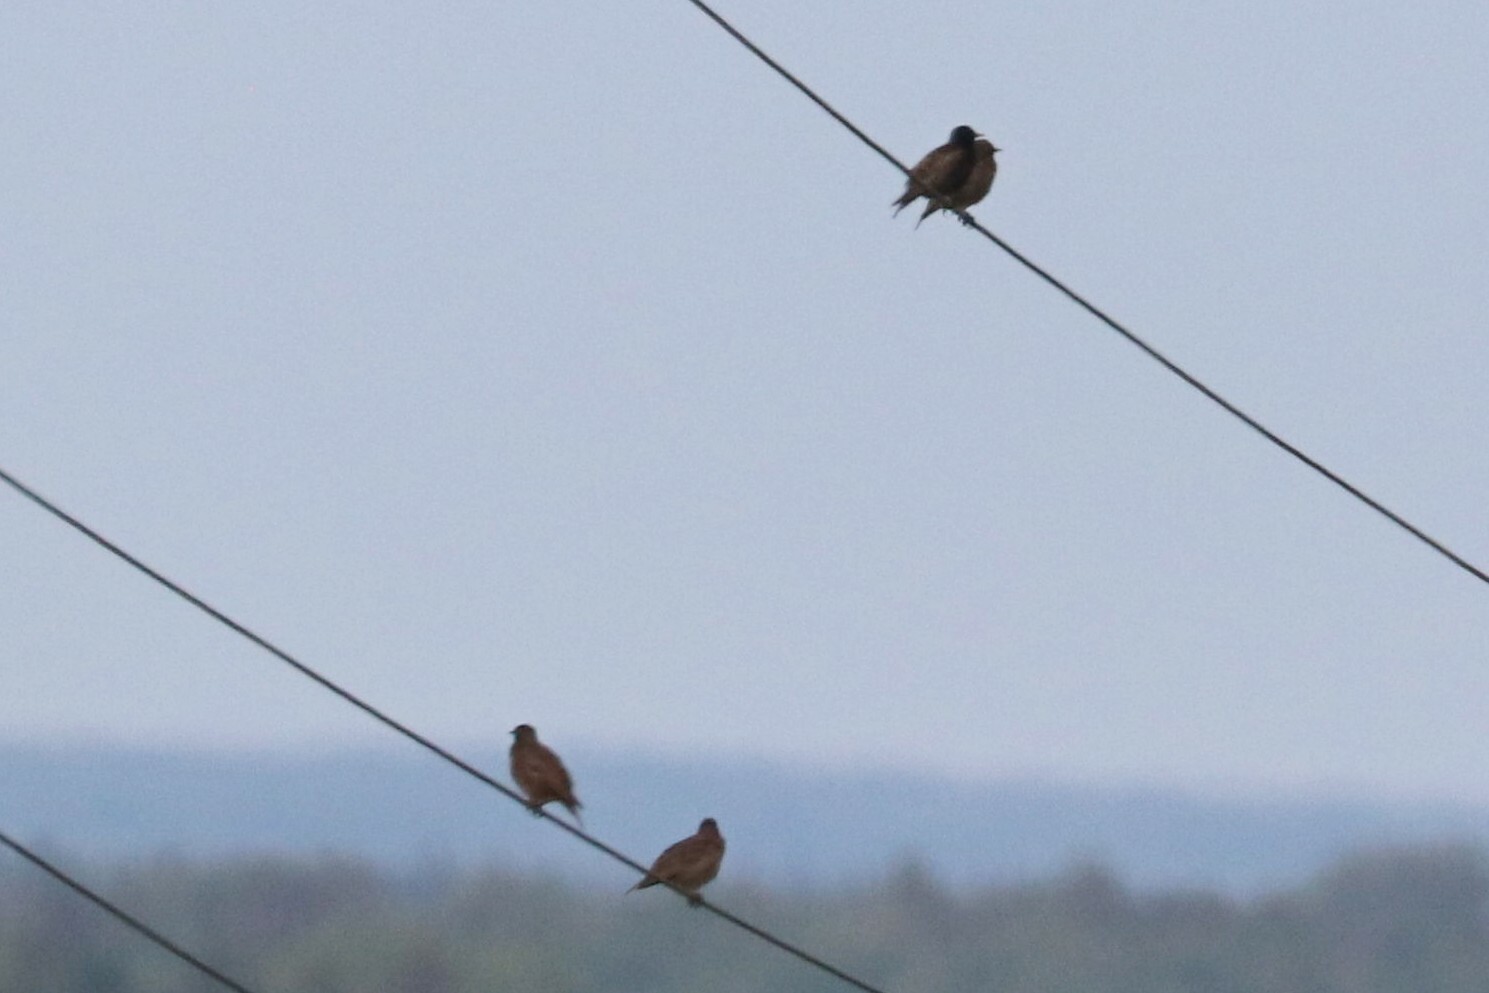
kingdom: Animalia
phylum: Chordata
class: Aves
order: Passeriformes
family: Sturnidae
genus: Sturnus
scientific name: Sturnus vulgaris
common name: Common starling
